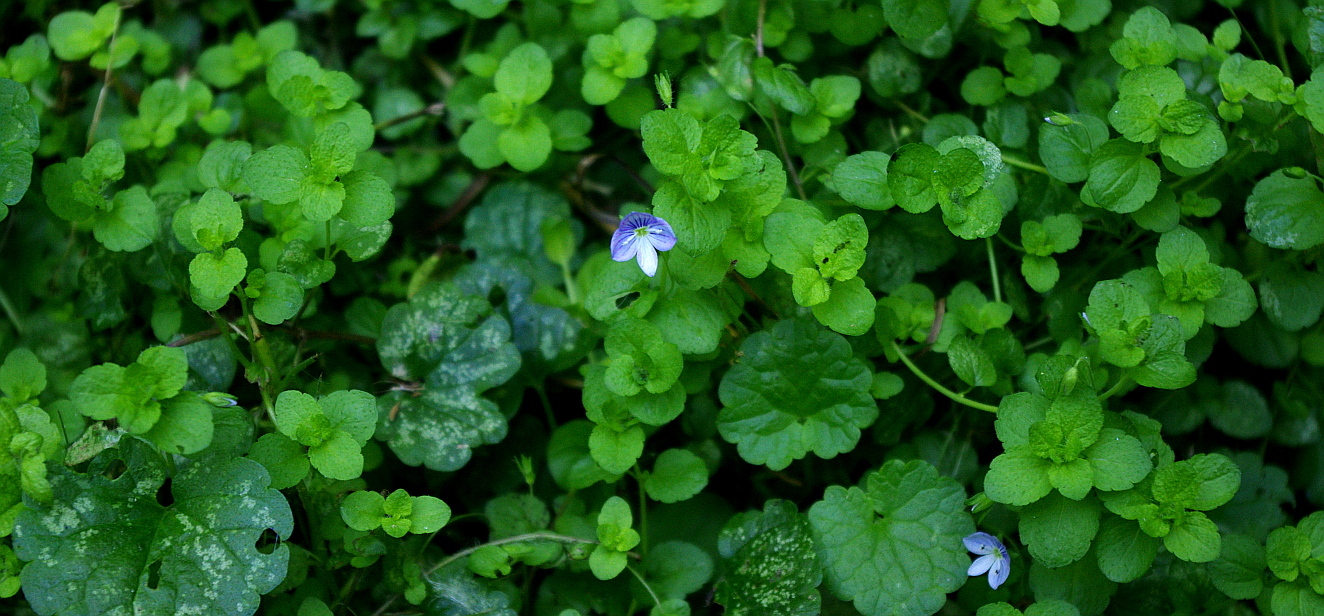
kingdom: Plantae
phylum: Tracheophyta
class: Magnoliopsida
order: Lamiales
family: Plantaginaceae
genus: Veronica
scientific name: Veronica filiformis
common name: Slender speedwell
